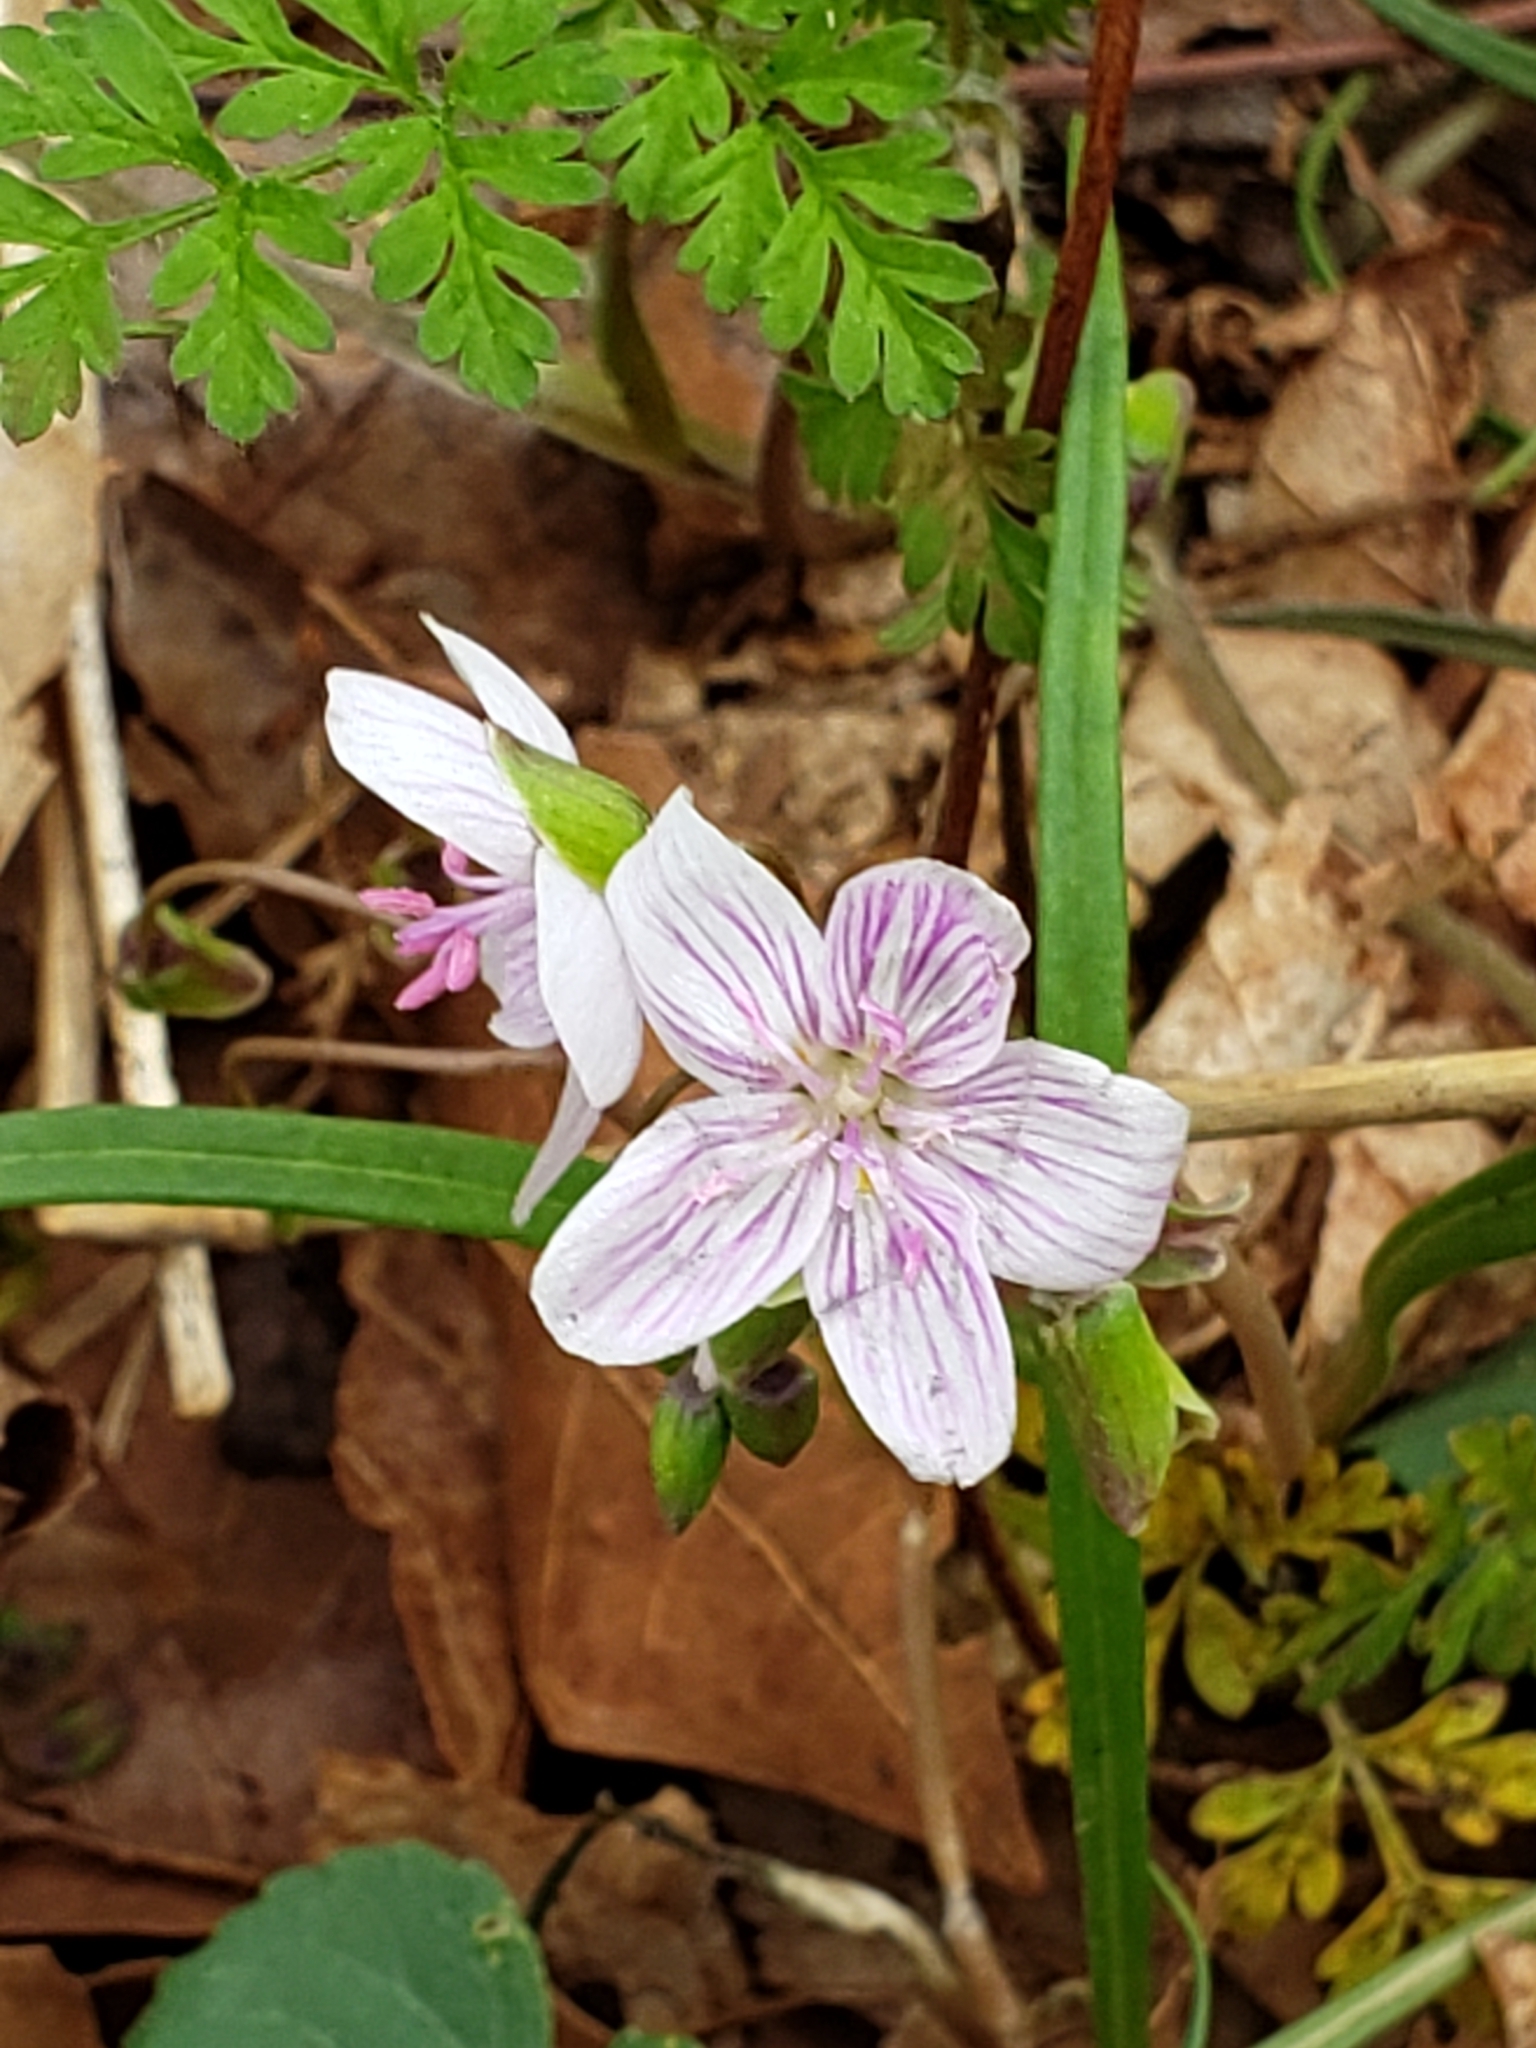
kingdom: Plantae
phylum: Tracheophyta
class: Magnoliopsida
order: Caryophyllales
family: Montiaceae
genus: Claytonia
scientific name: Claytonia virginica
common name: Virginia springbeauty
